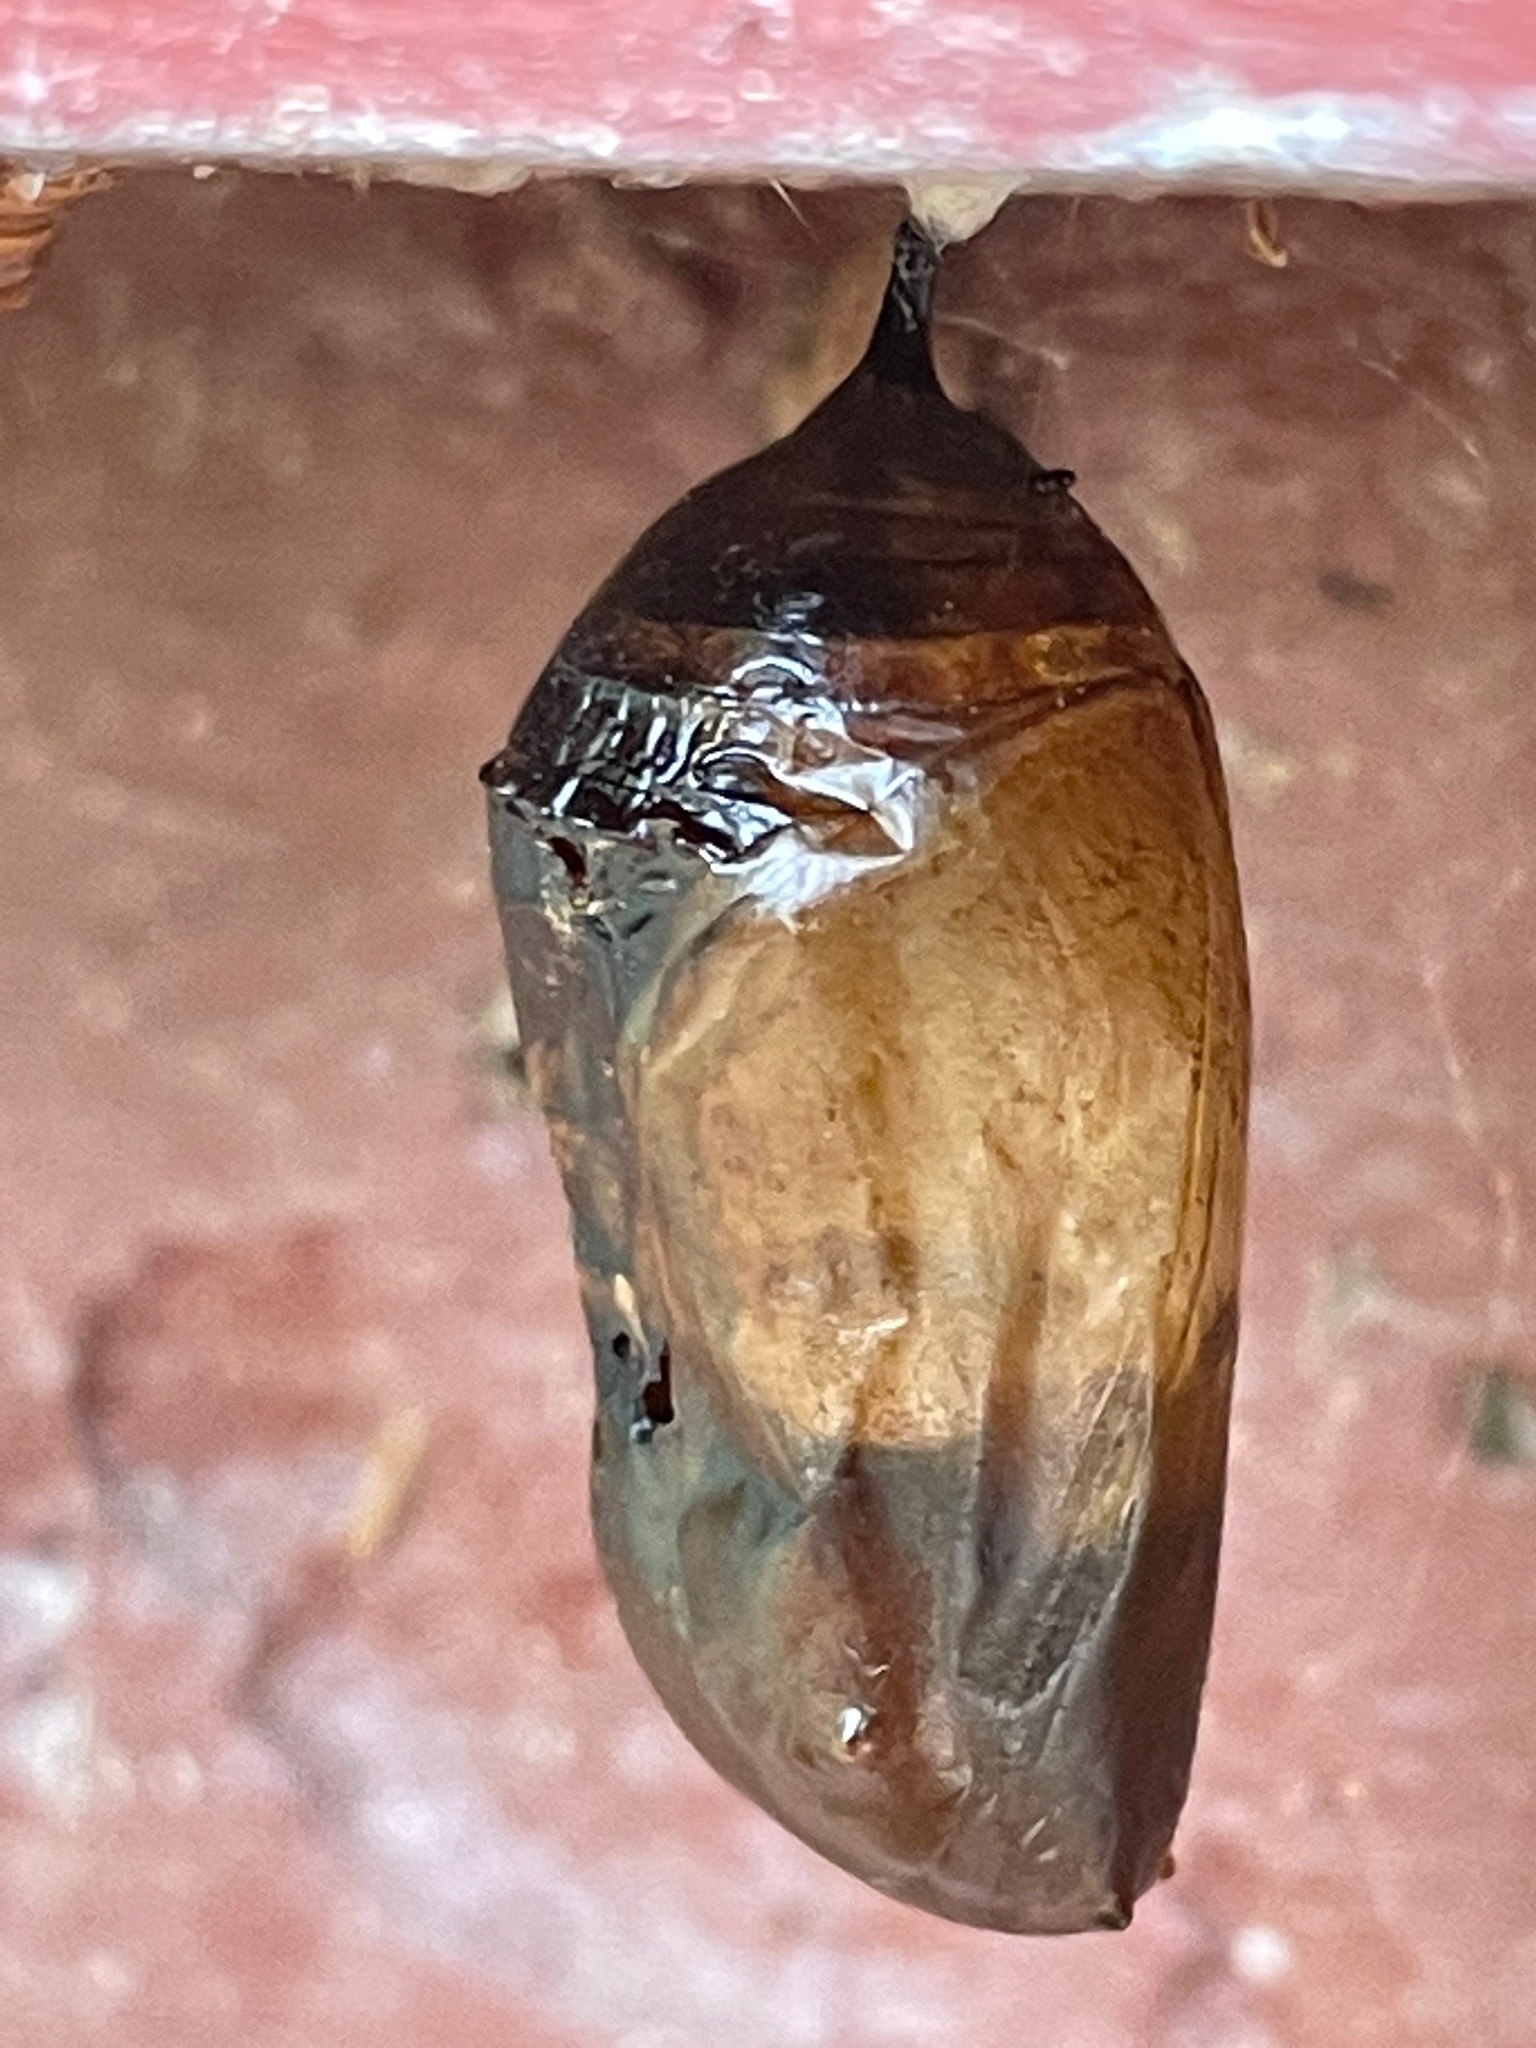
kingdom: Animalia
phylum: Arthropoda
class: Insecta
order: Lepidoptera
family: Nymphalidae
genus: Danaus
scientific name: Danaus plexippus
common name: Monarch
